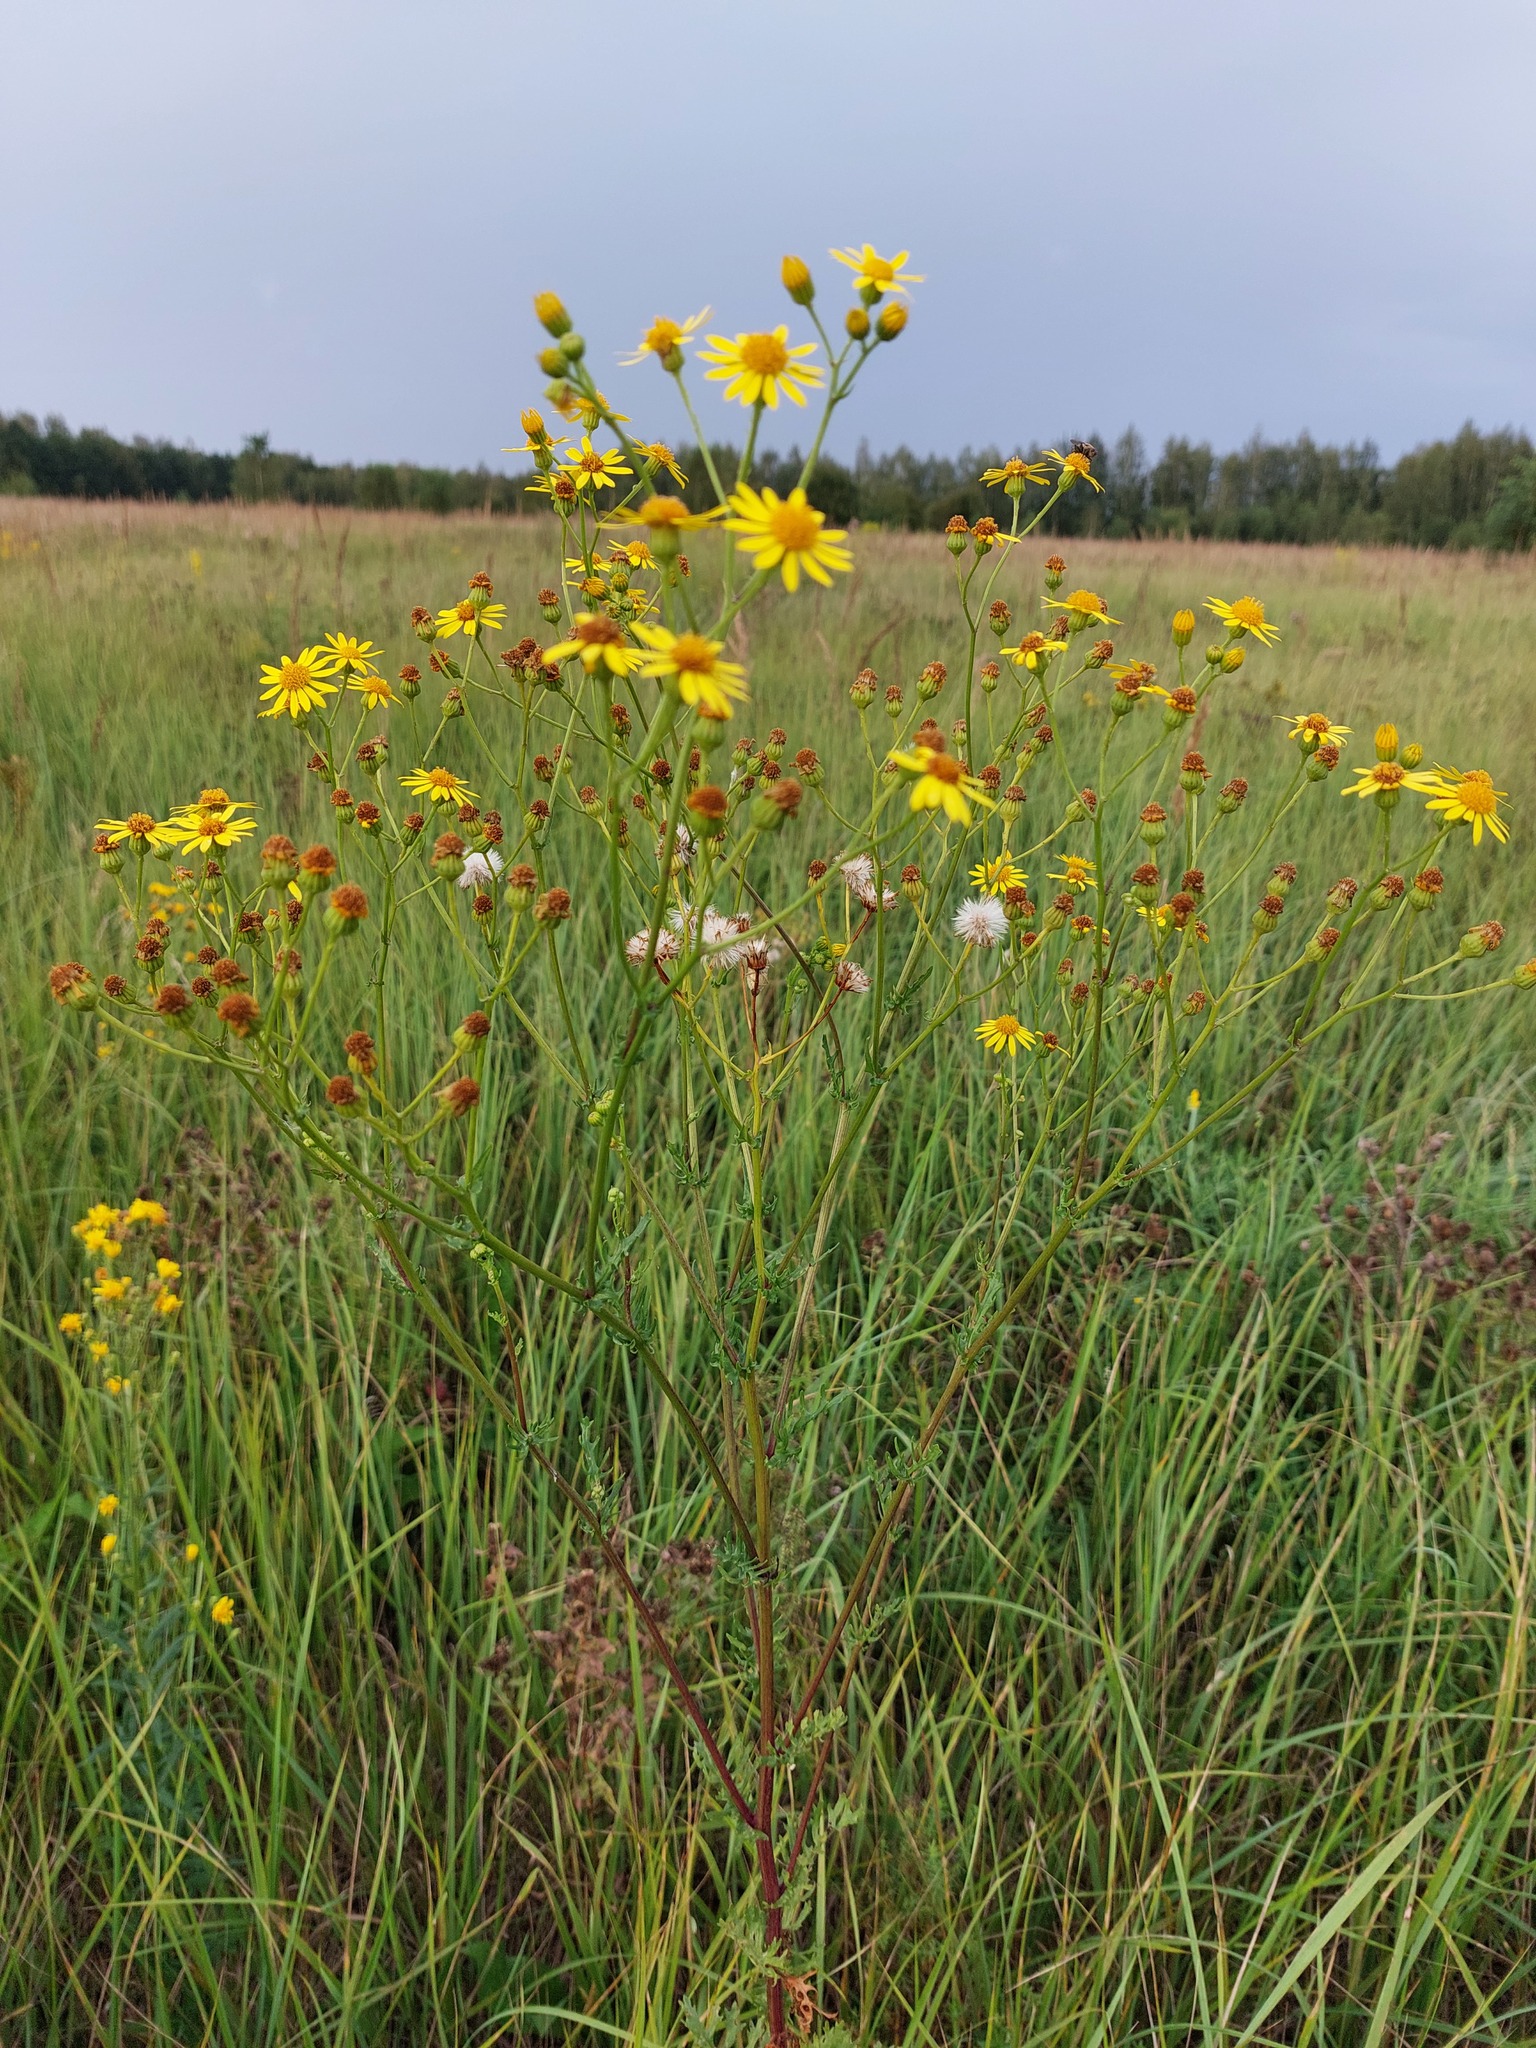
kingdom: Plantae
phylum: Tracheophyta
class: Magnoliopsida
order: Asterales
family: Asteraceae
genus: Jacobaea
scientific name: Jacobaea vulgaris
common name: Stinking willie
